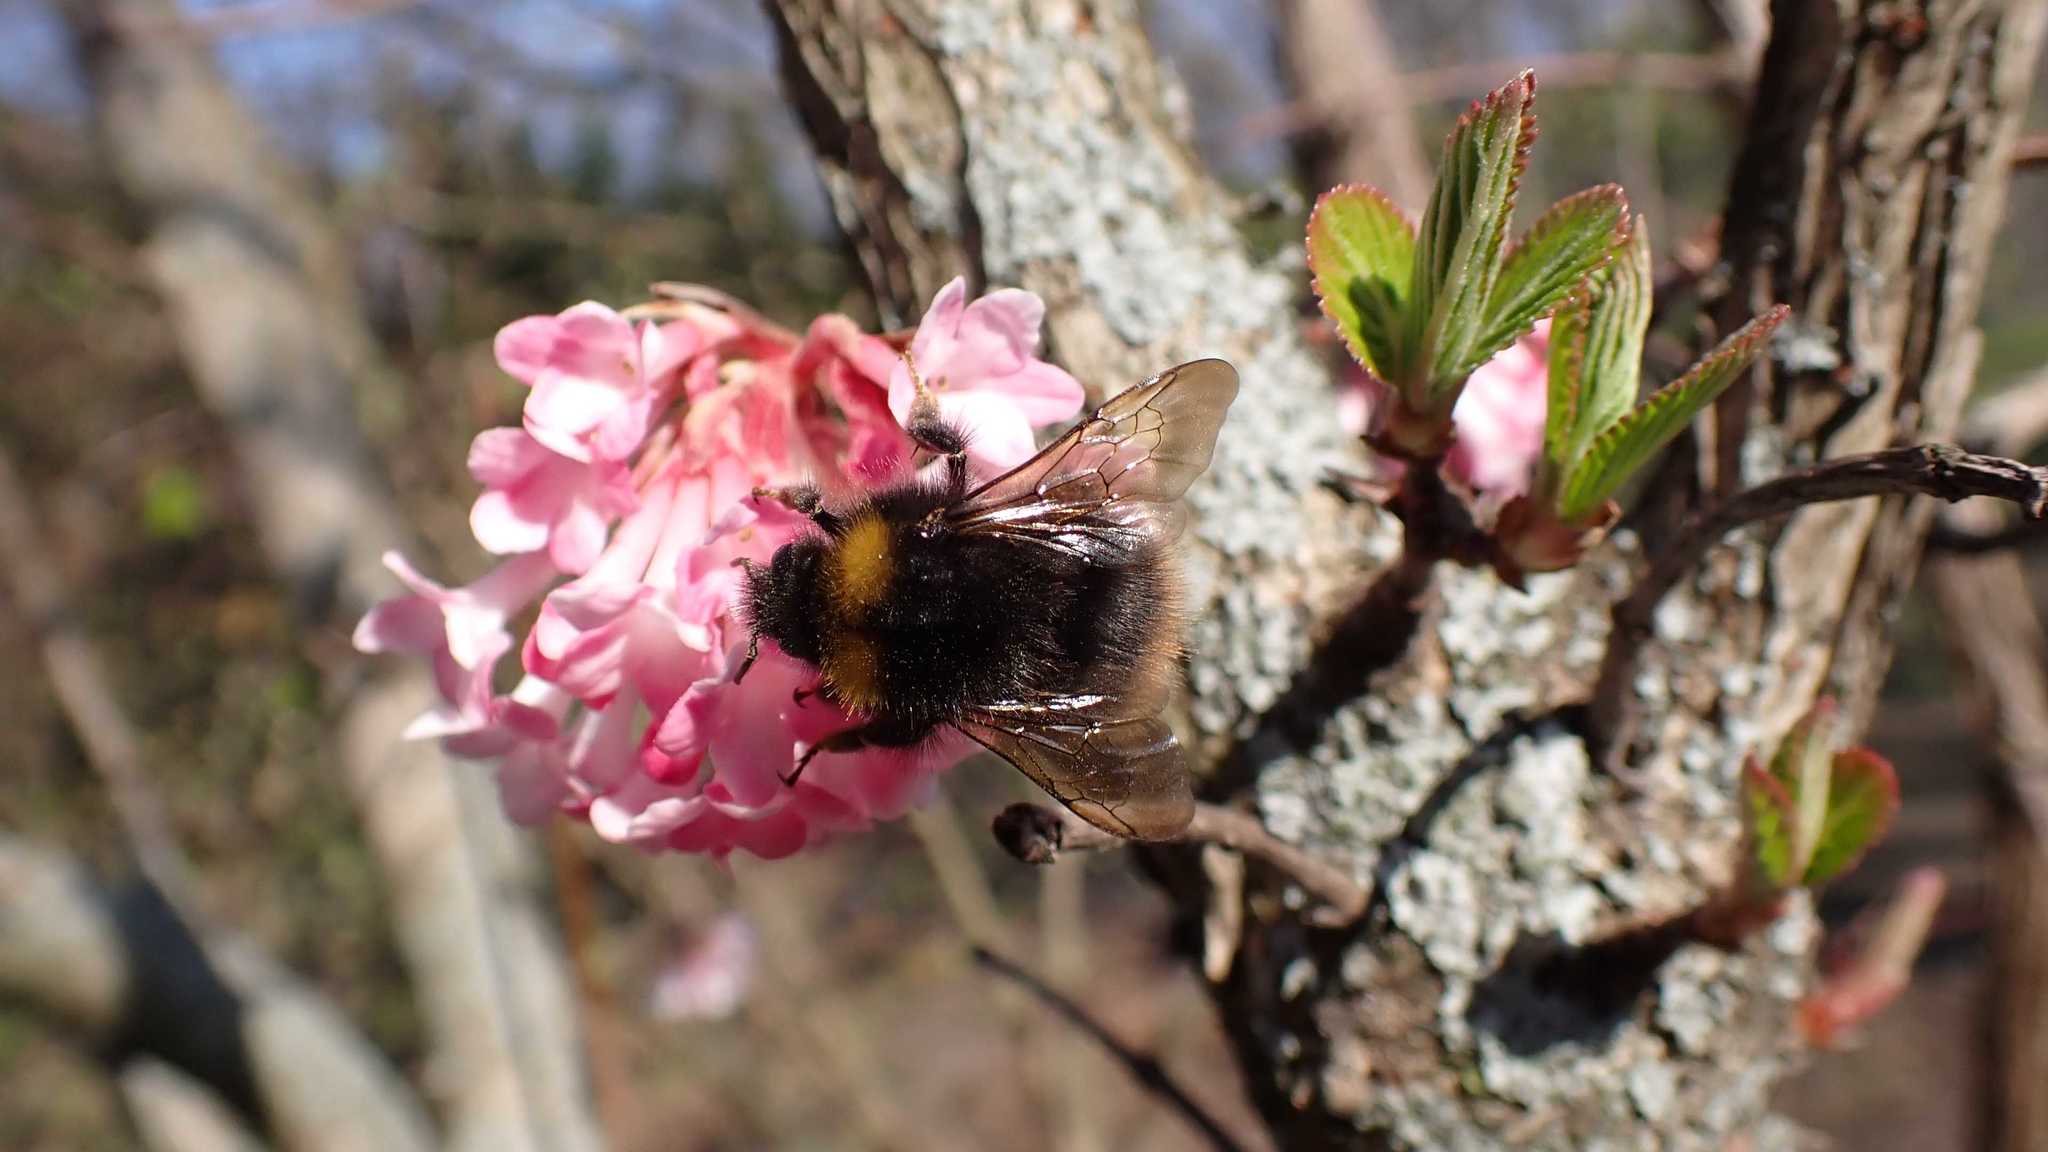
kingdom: Animalia
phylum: Arthropoda
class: Insecta
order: Hymenoptera
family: Apidae
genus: Bombus
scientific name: Bombus pratorum
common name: Early humble-bee
